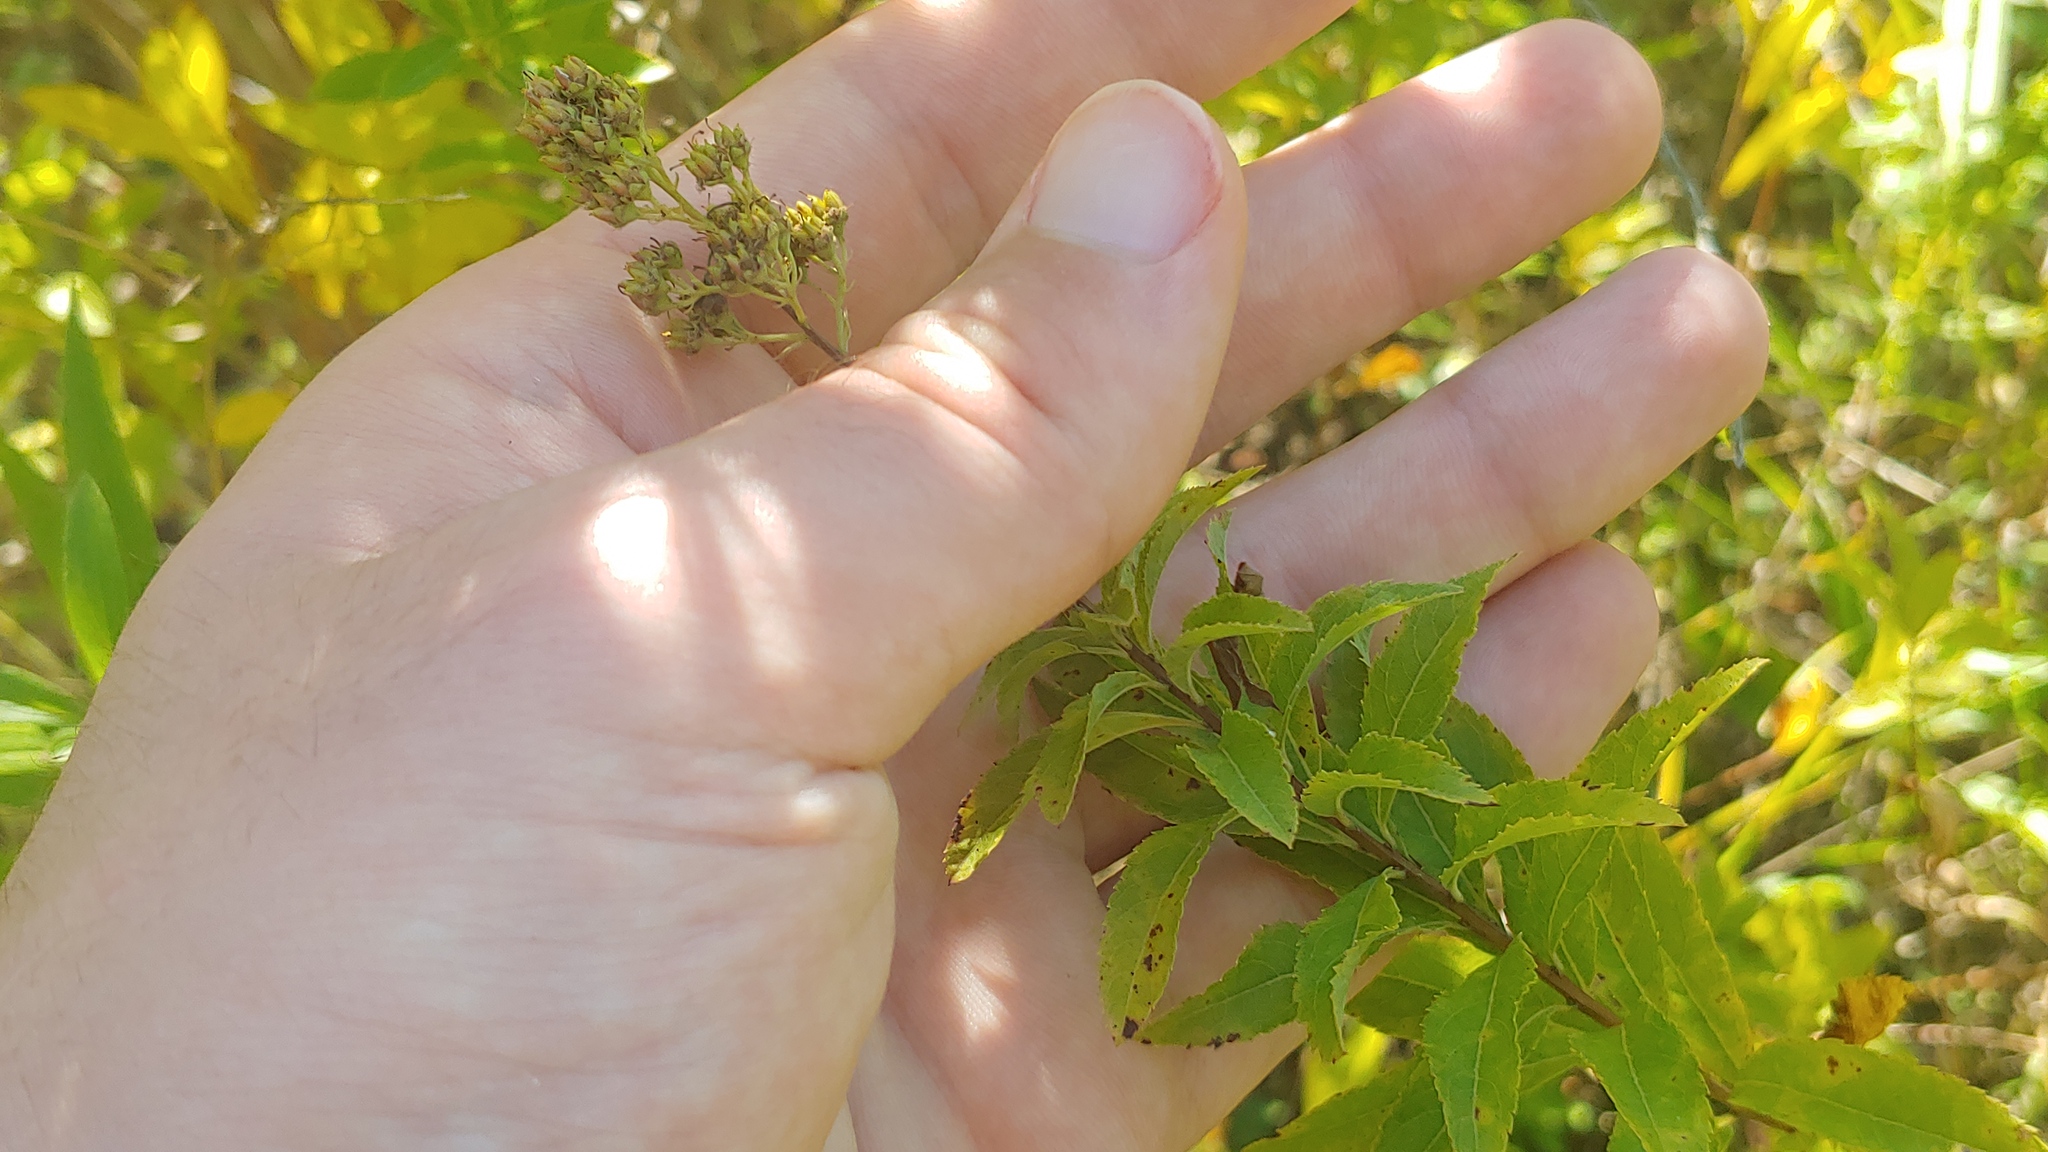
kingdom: Plantae
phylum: Tracheophyta
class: Magnoliopsida
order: Rosales
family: Rosaceae
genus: Spiraea
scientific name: Spiraea alba
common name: Pale bridewort
